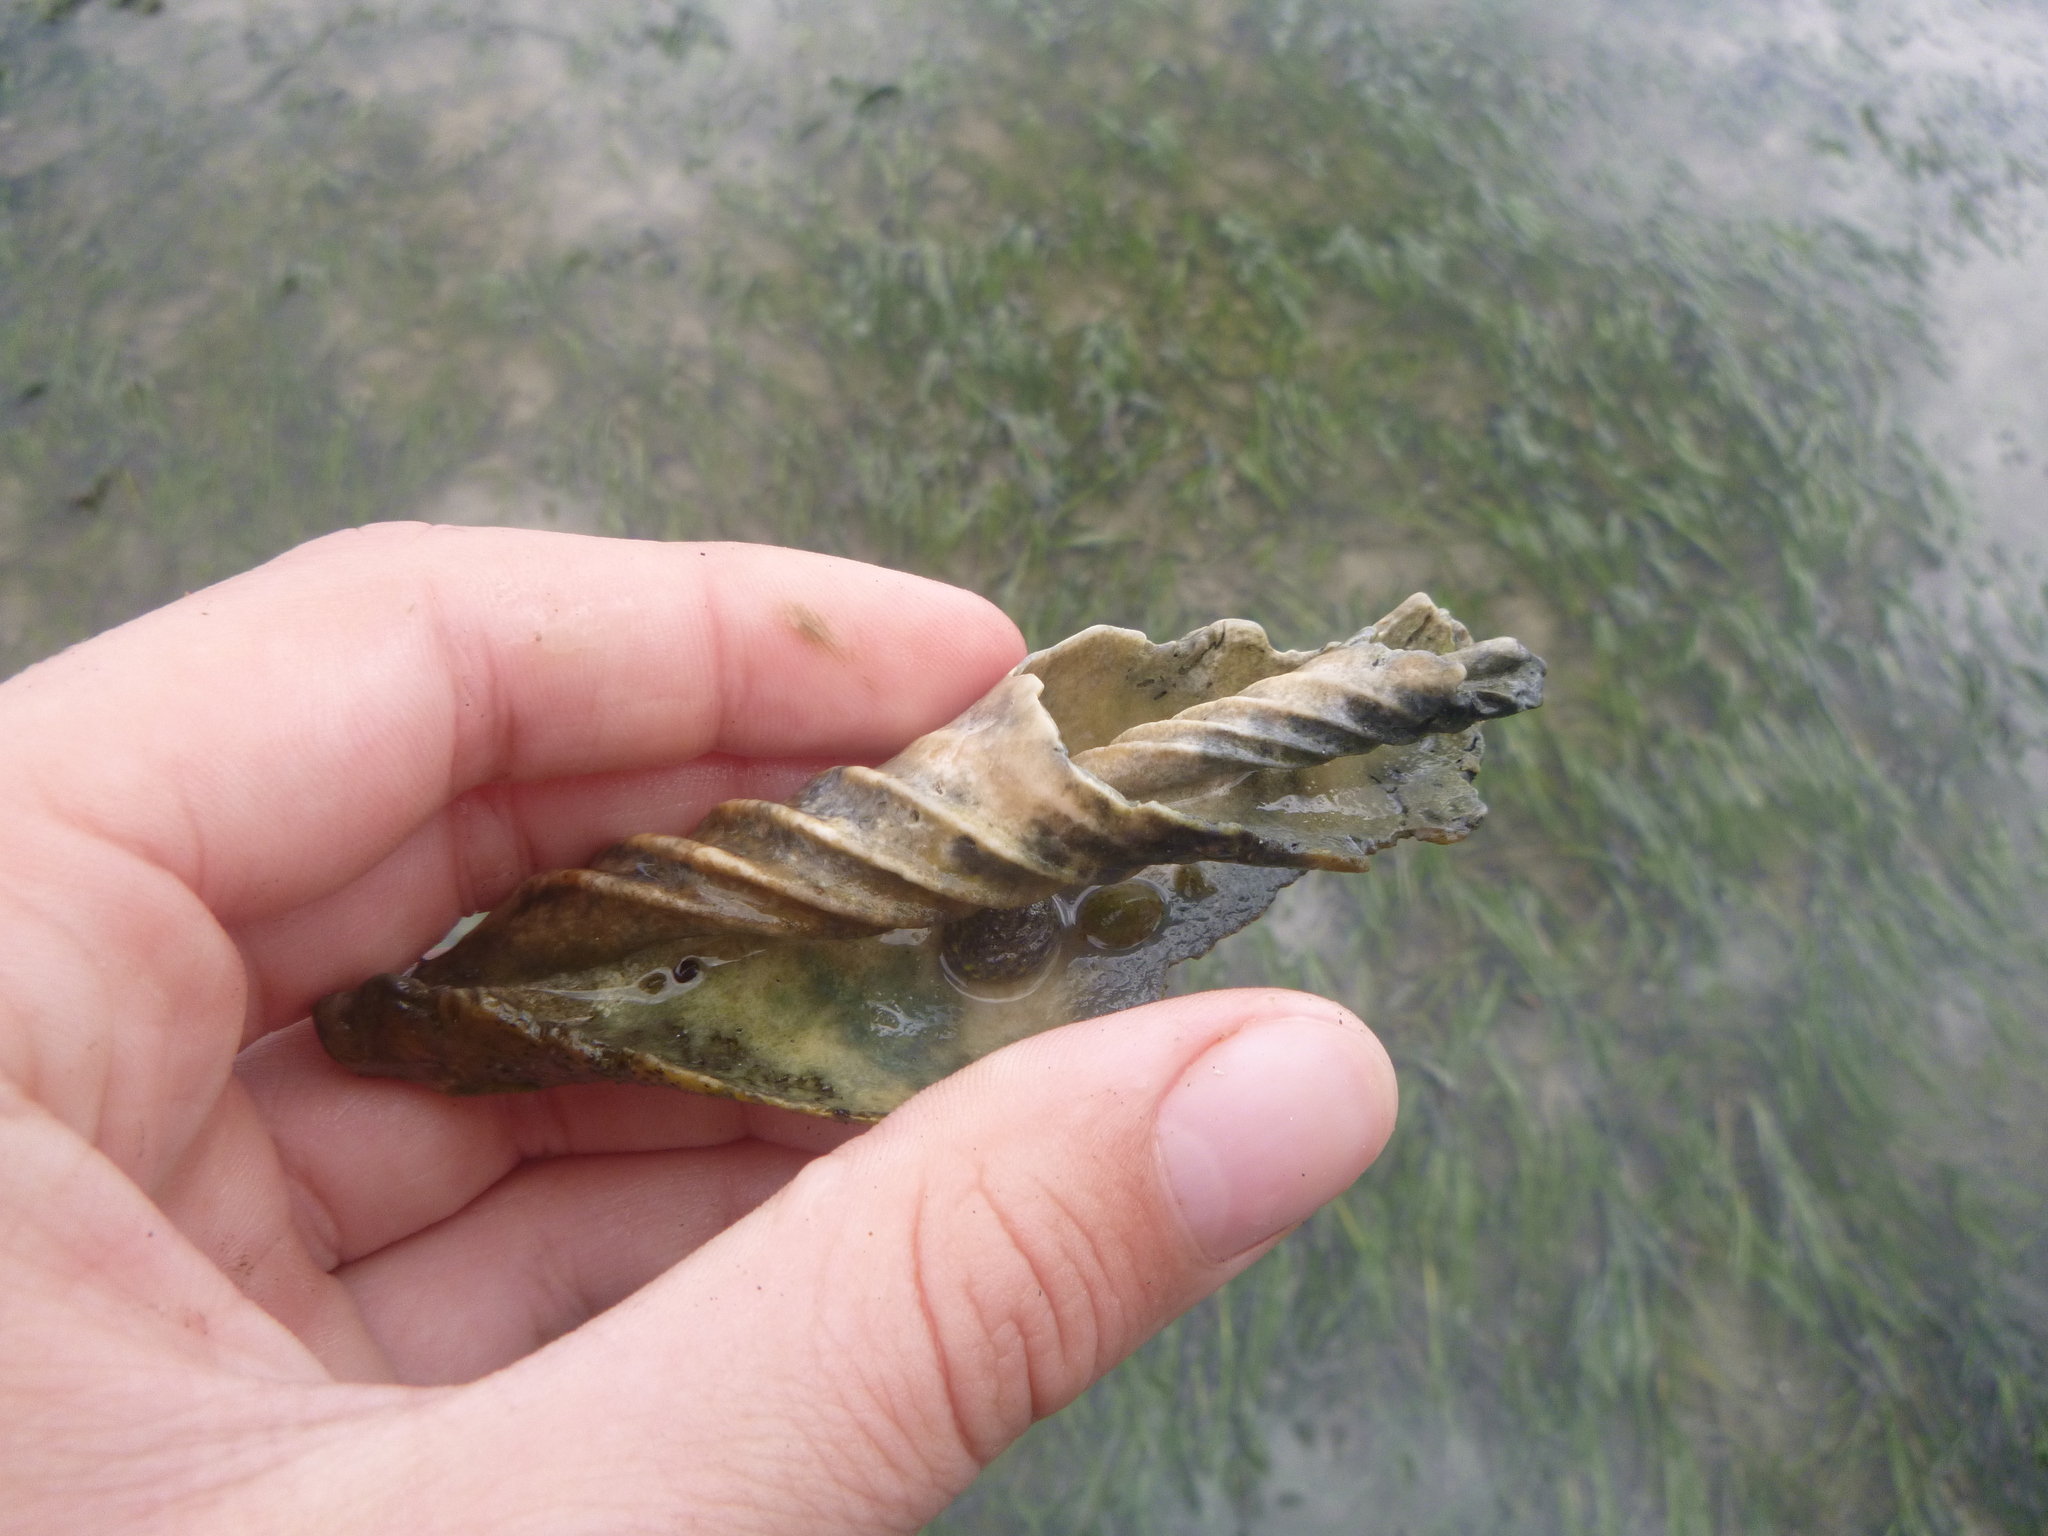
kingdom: Animalia
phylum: Mollusca
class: Gastropoda
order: Neogastropoda
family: Volutidae
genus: Alcithoe
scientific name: Alcithoe arabica
